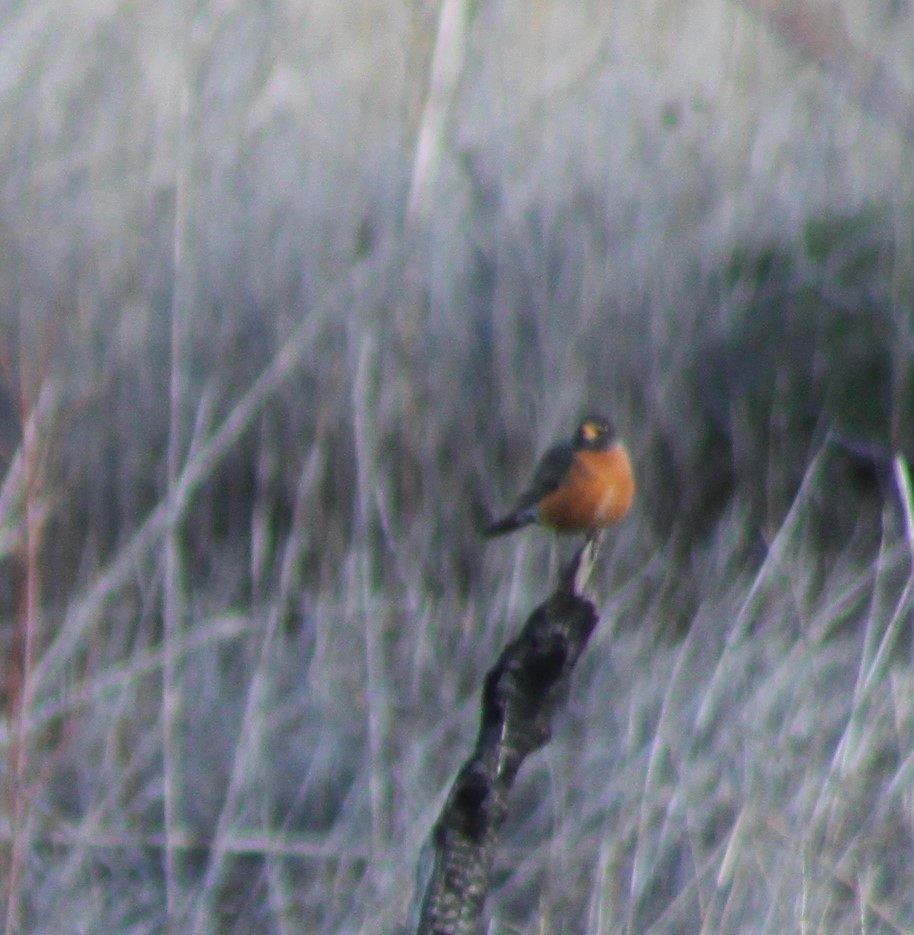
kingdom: Animalia
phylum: Chordata
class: Aves
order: Passeriformes
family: Turdidae
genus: Turdus
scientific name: Turdus migratorius
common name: American robin
